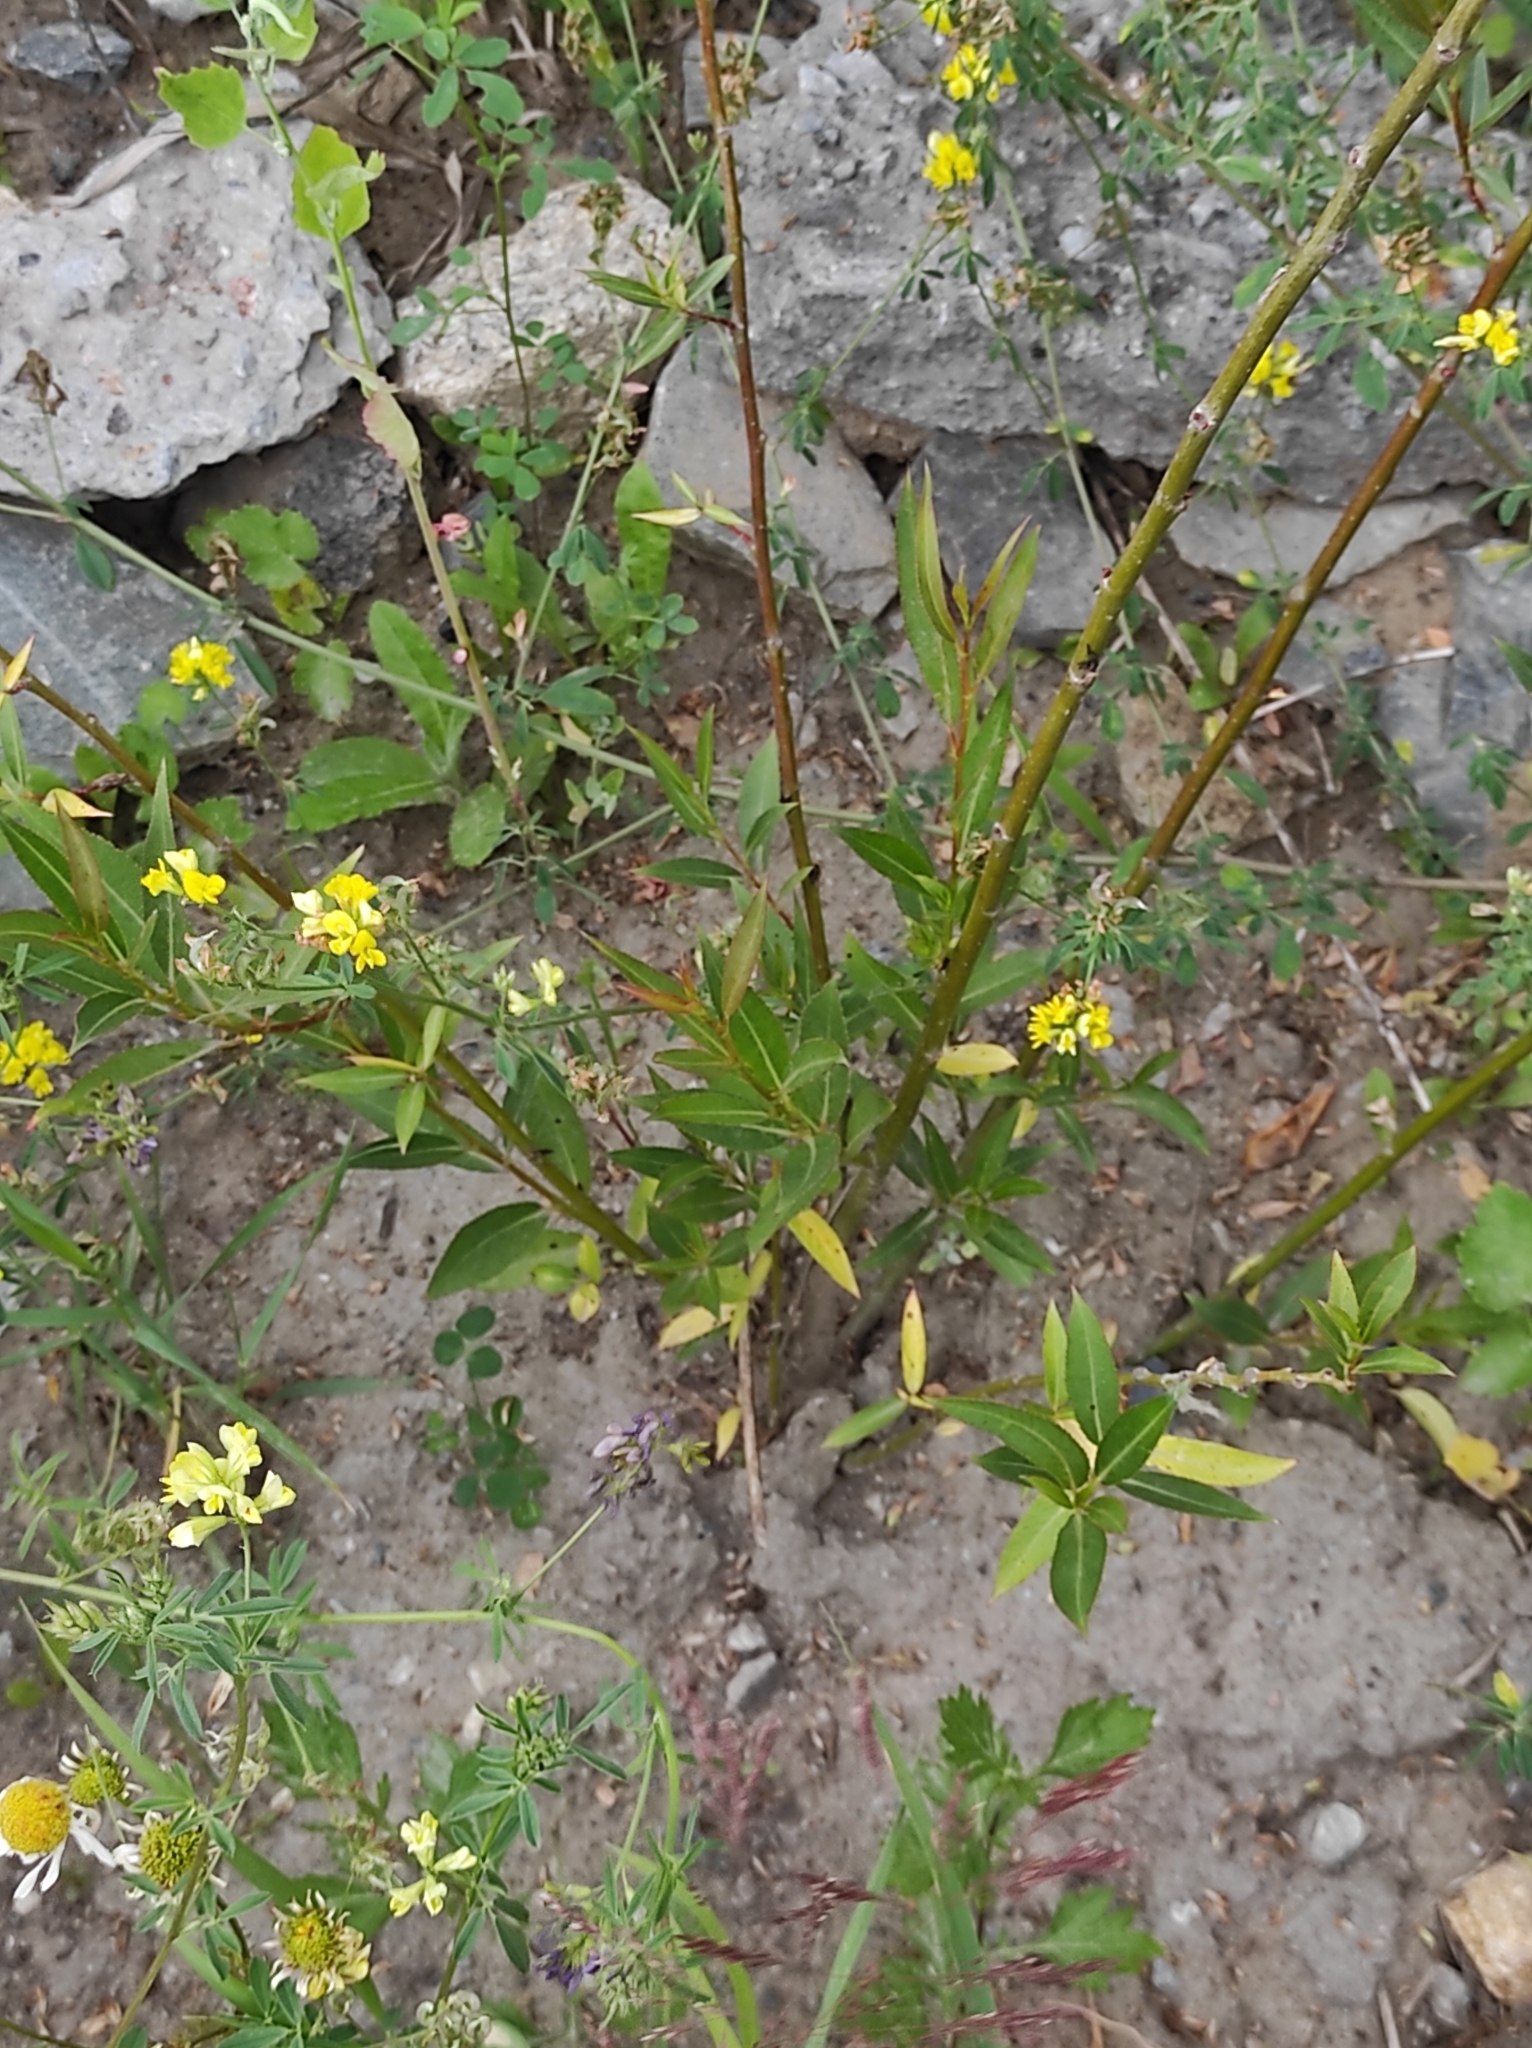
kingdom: Plantae
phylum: Tracheophyta
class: Magnoliopsida
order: Fabales
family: Fabaceae
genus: Medicago
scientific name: Medicago falcata
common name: Sickle medick
